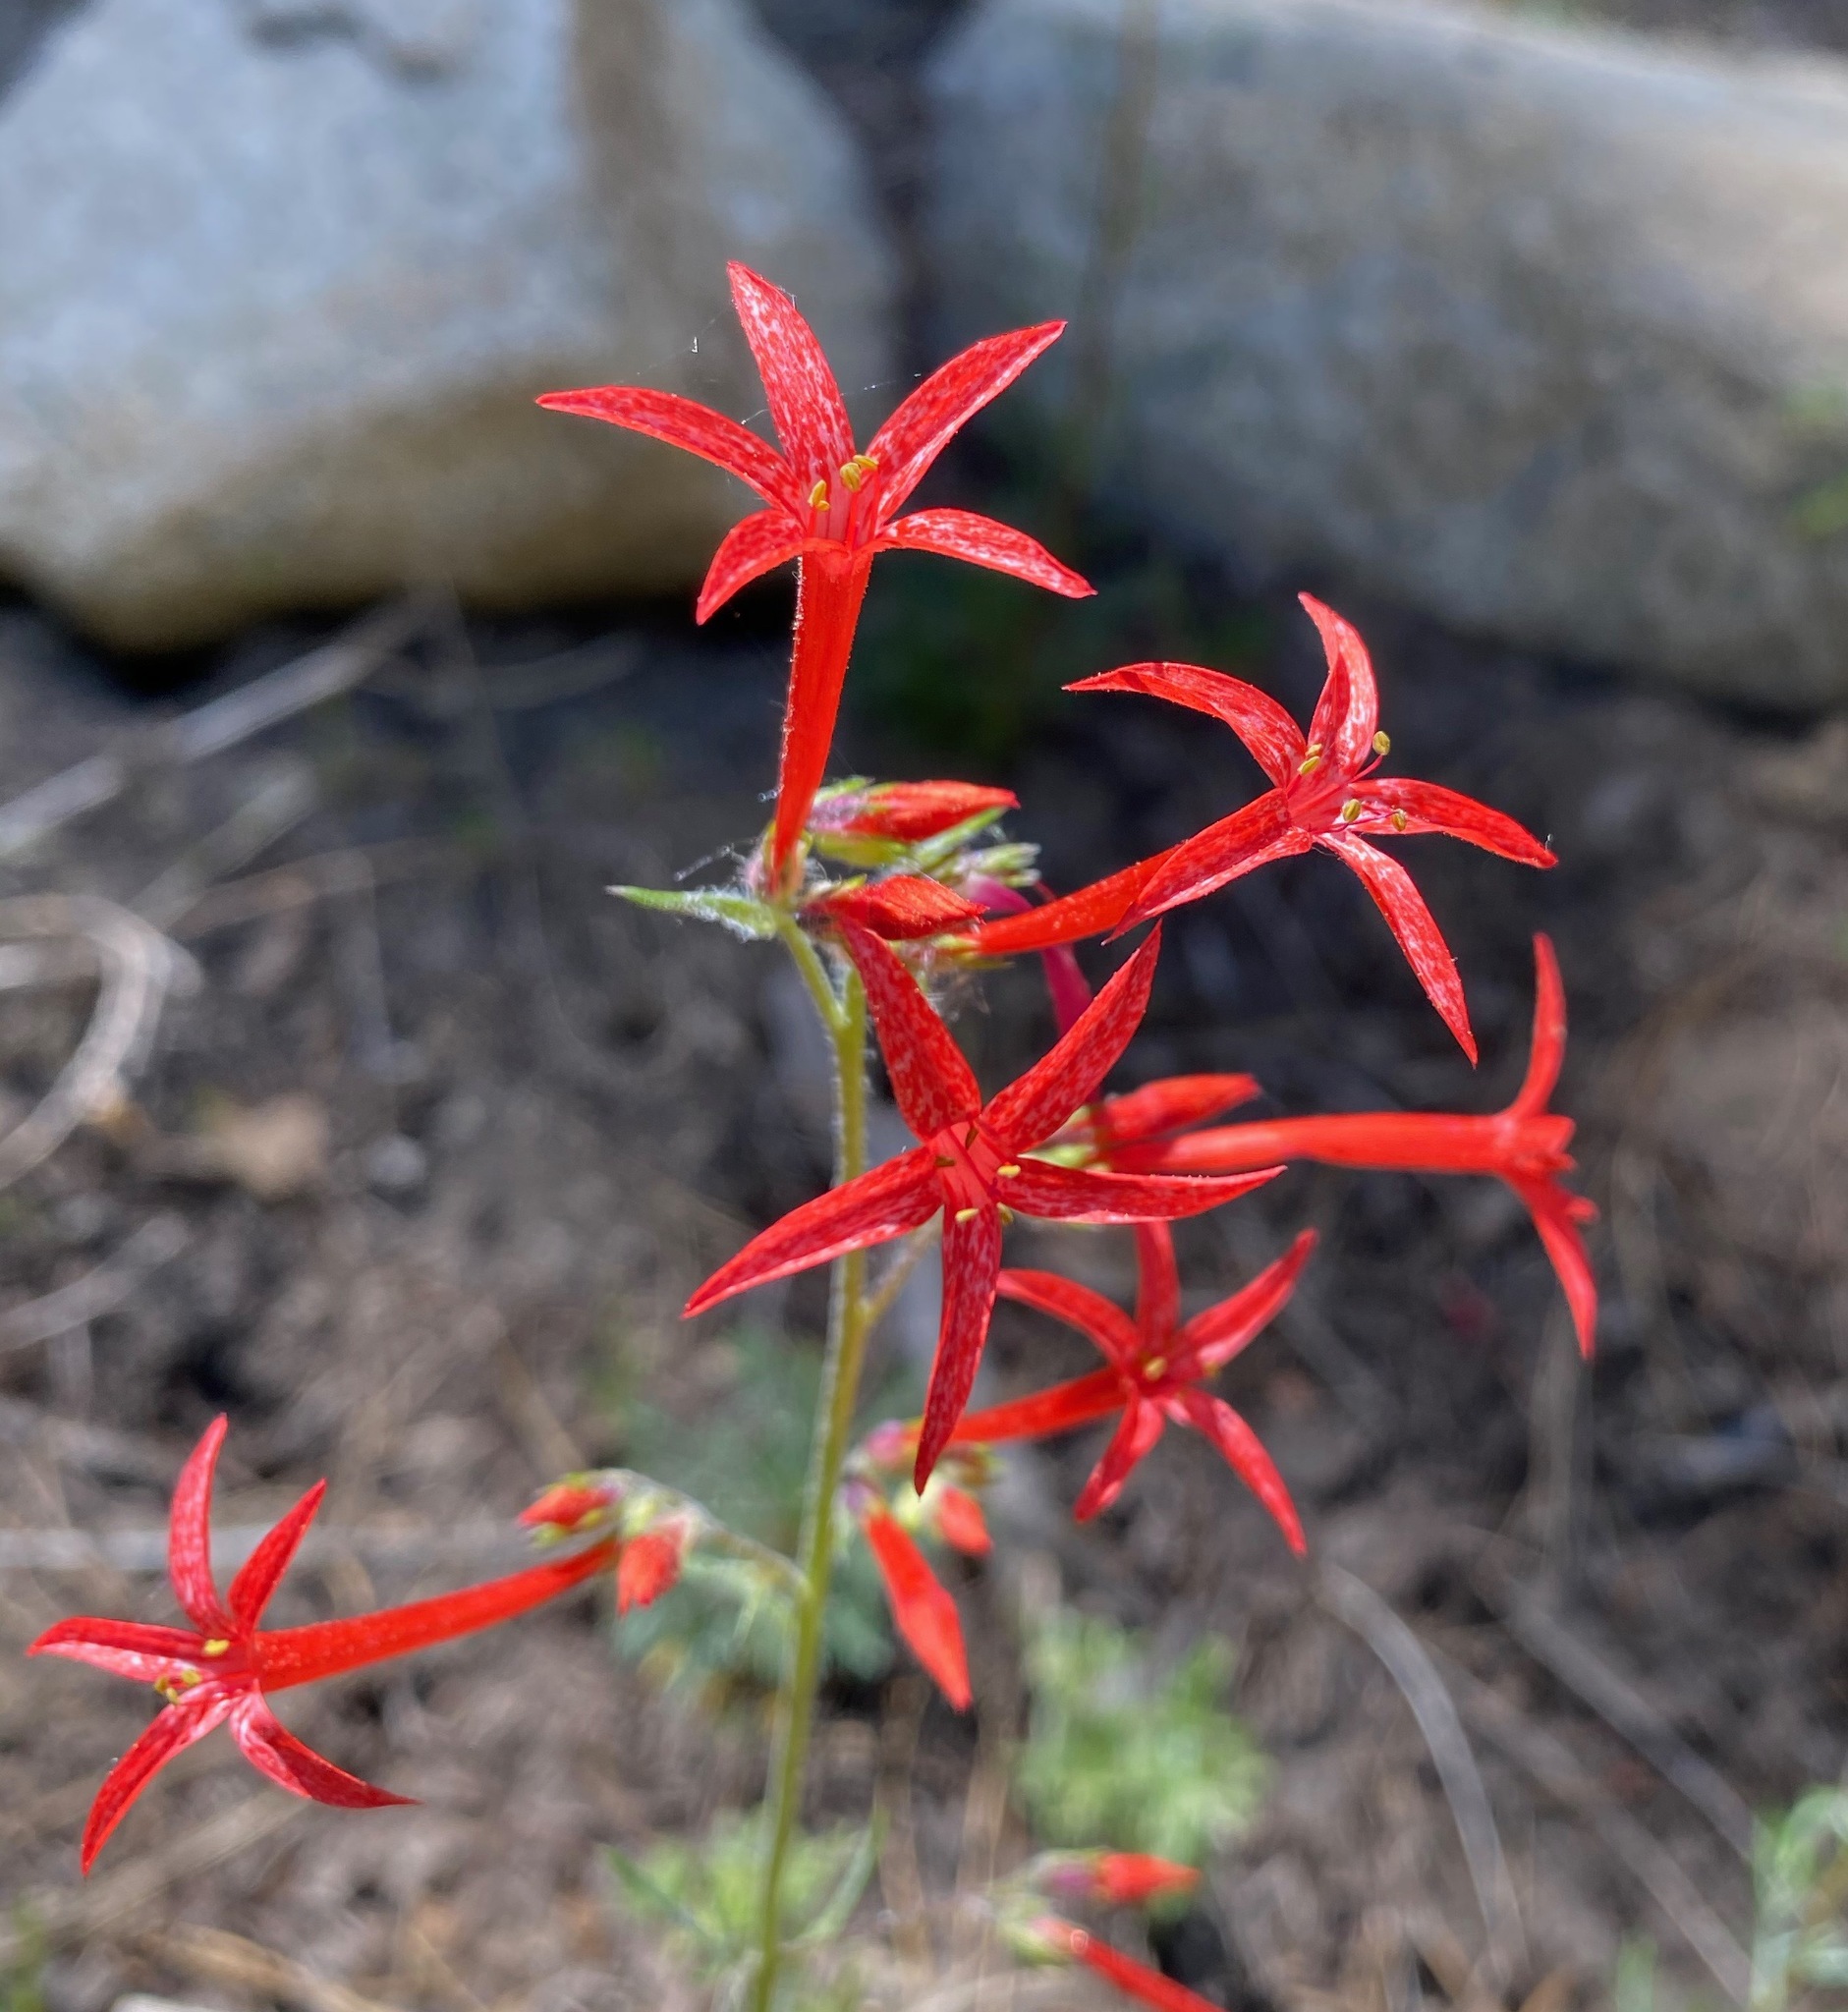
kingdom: Plantae
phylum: Tracheophyta
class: Magnoliopsida
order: Ericales
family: Polemoniaceae
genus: Ipomopsis
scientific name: Ipomopsis aggregata
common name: Scarlet gilia
